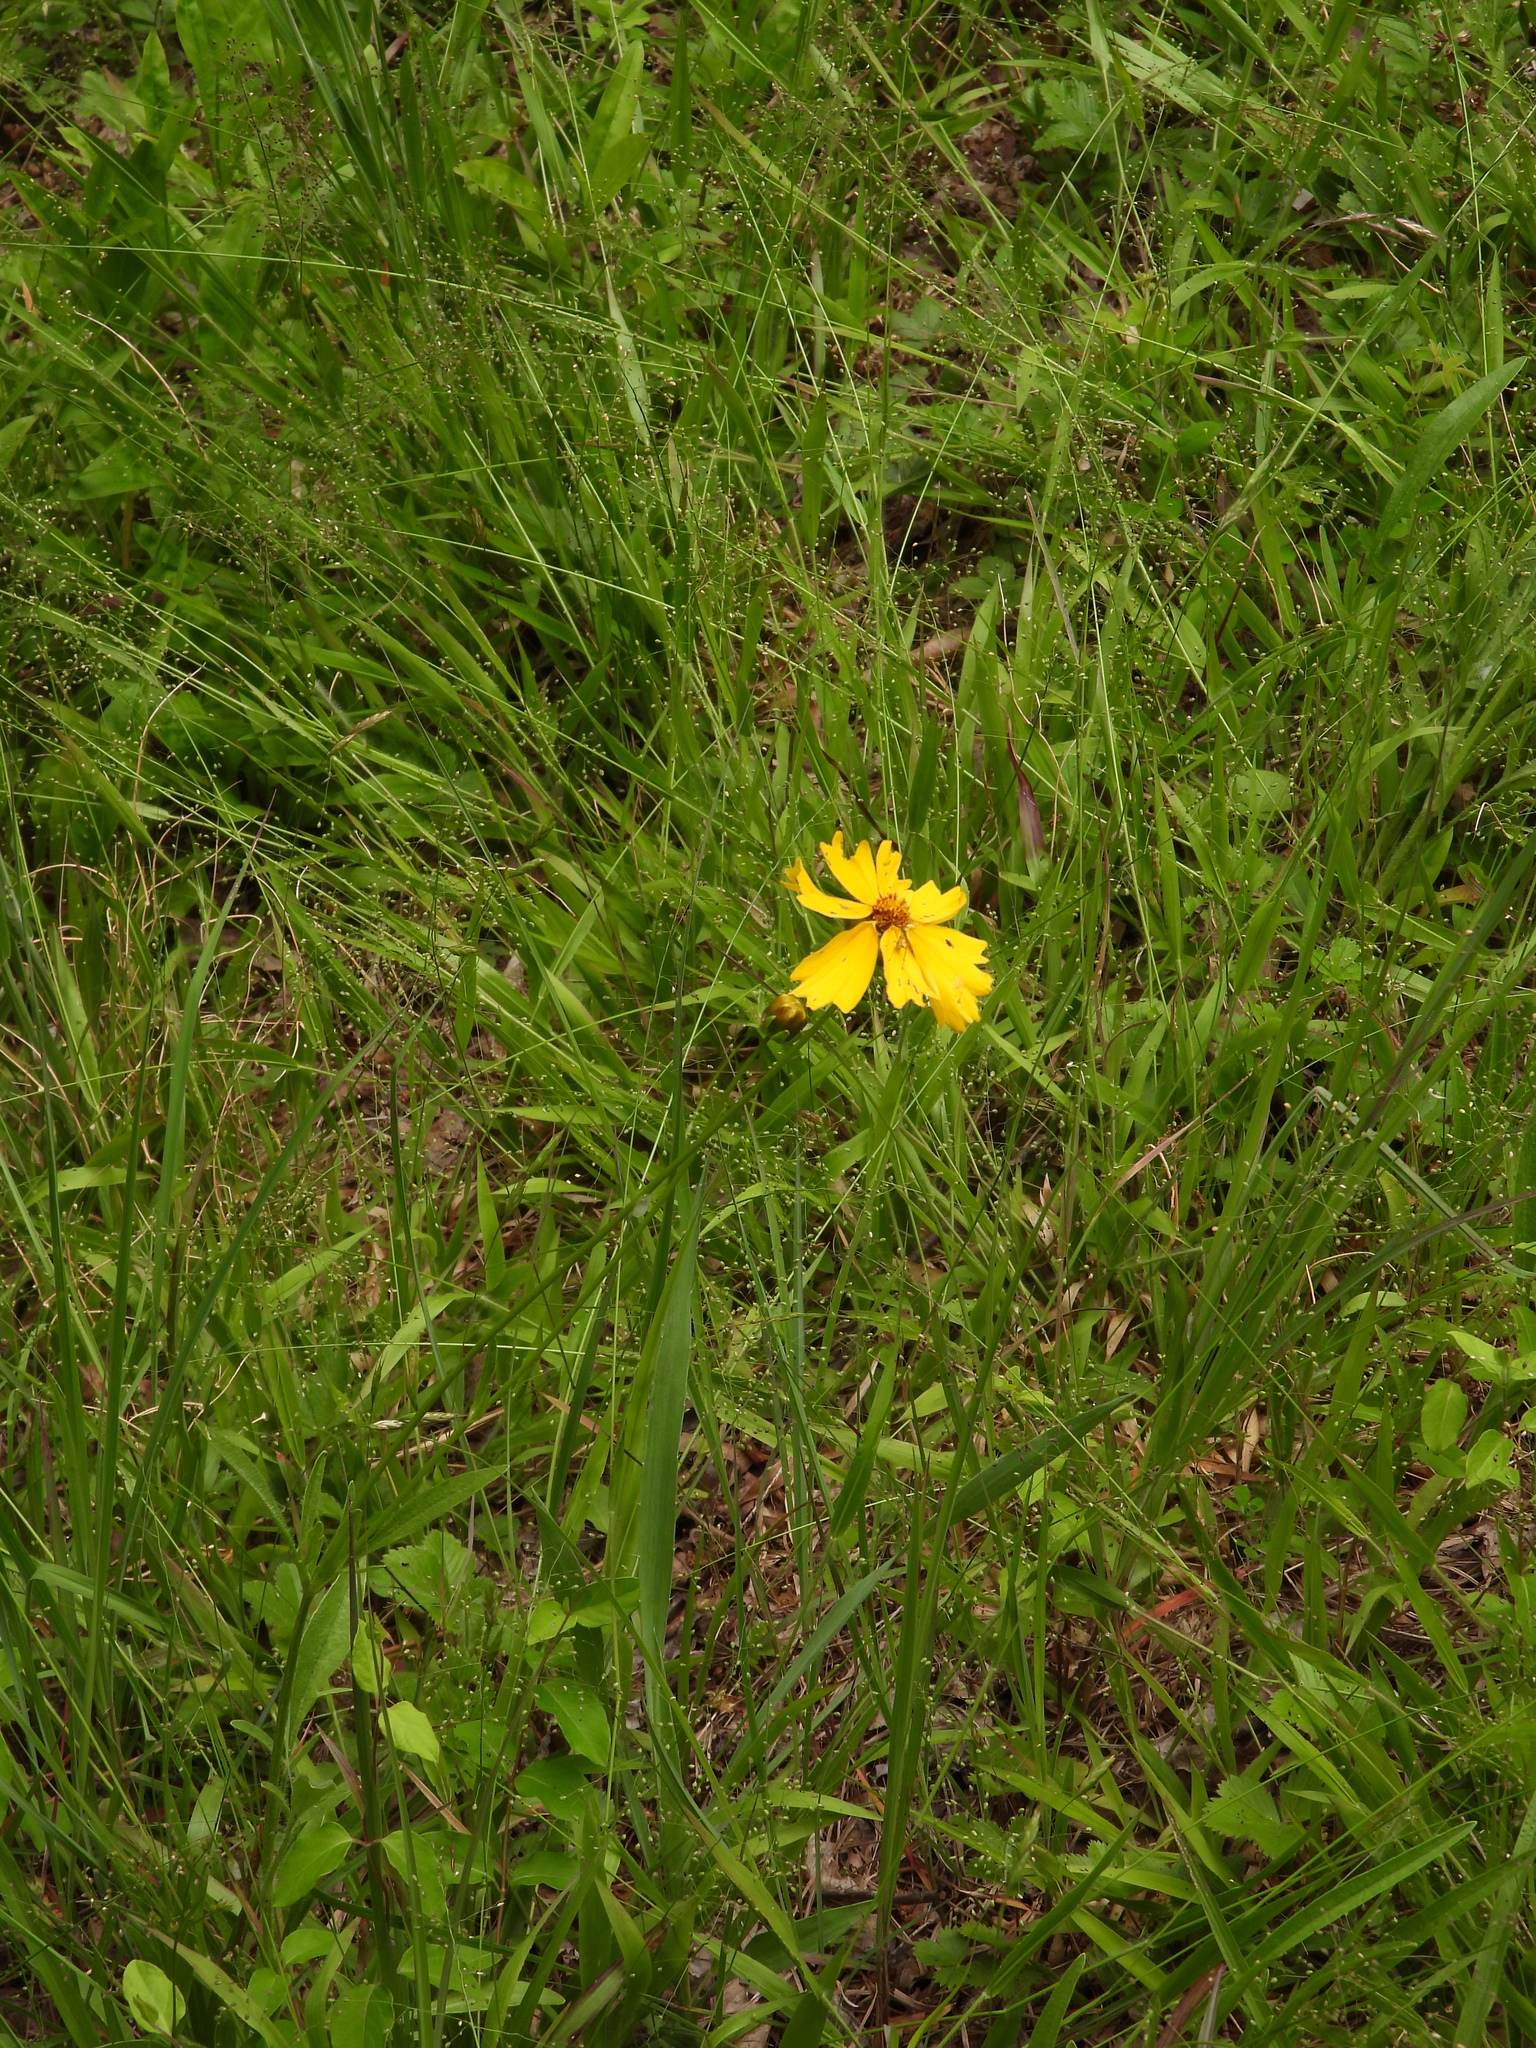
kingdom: Plantae
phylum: Tracheophyta
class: Magnoliopsida
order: Asterales
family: Asteraceae
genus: Coreopsis
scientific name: Coreopsis lanceolata
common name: Garden coreopsis
